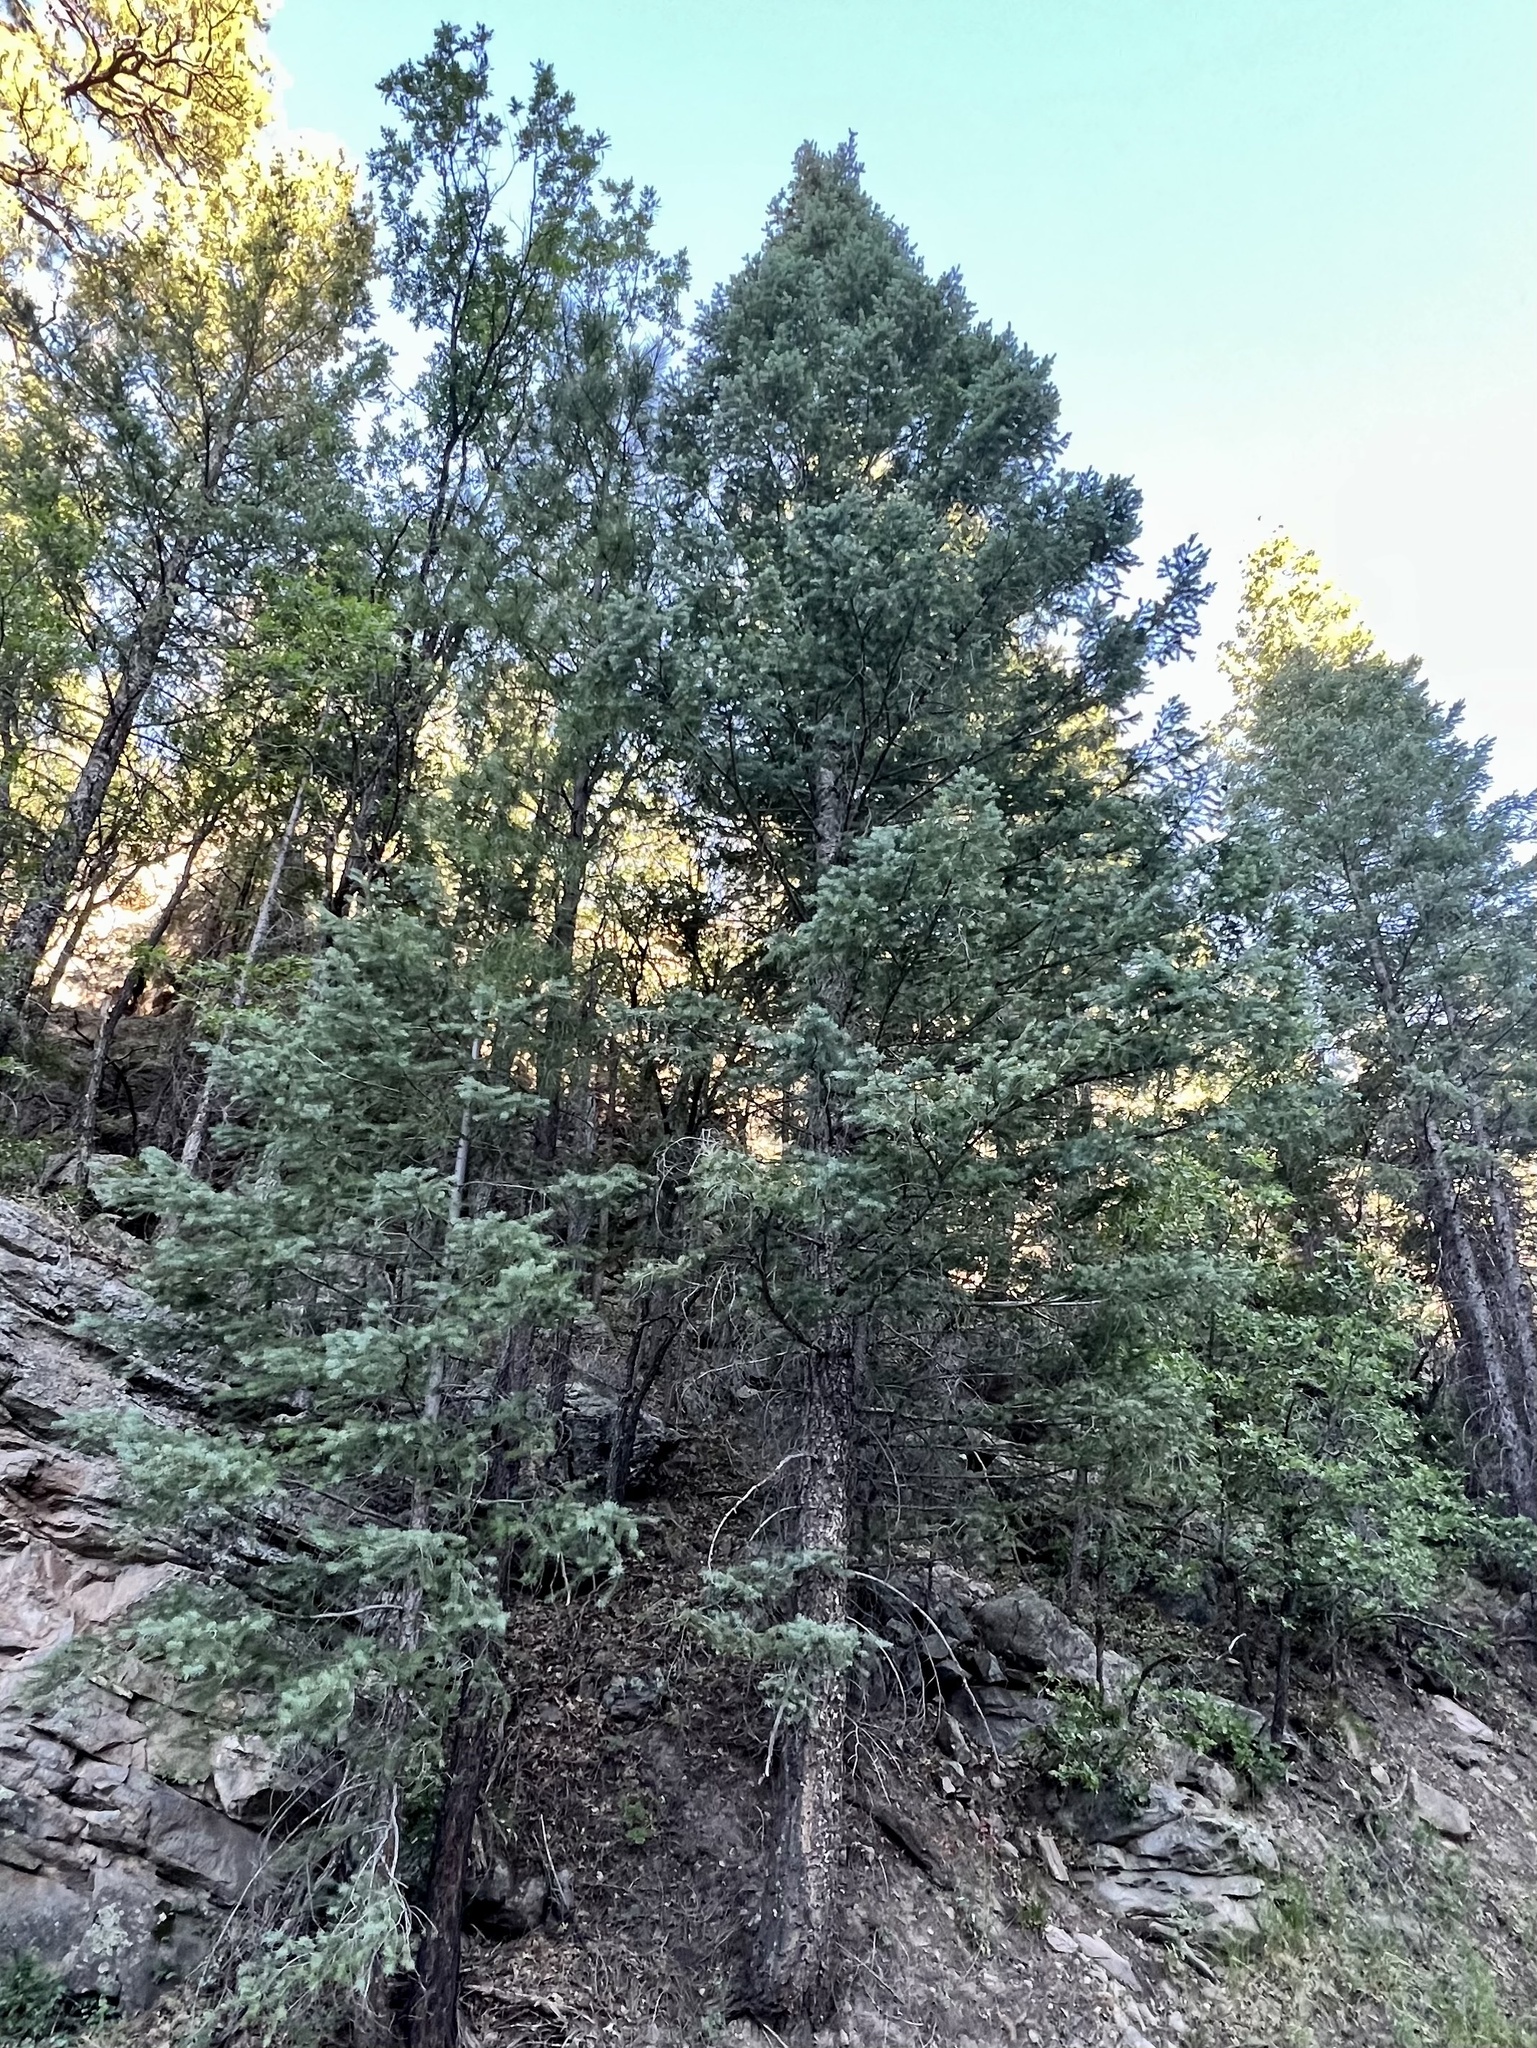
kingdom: Plantae
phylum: Tracheophyta
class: Pinopsida
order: Pinales
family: Pinaceae
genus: Pseudotsuga
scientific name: Pseudotsuga menziesii
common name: Douglas fir
